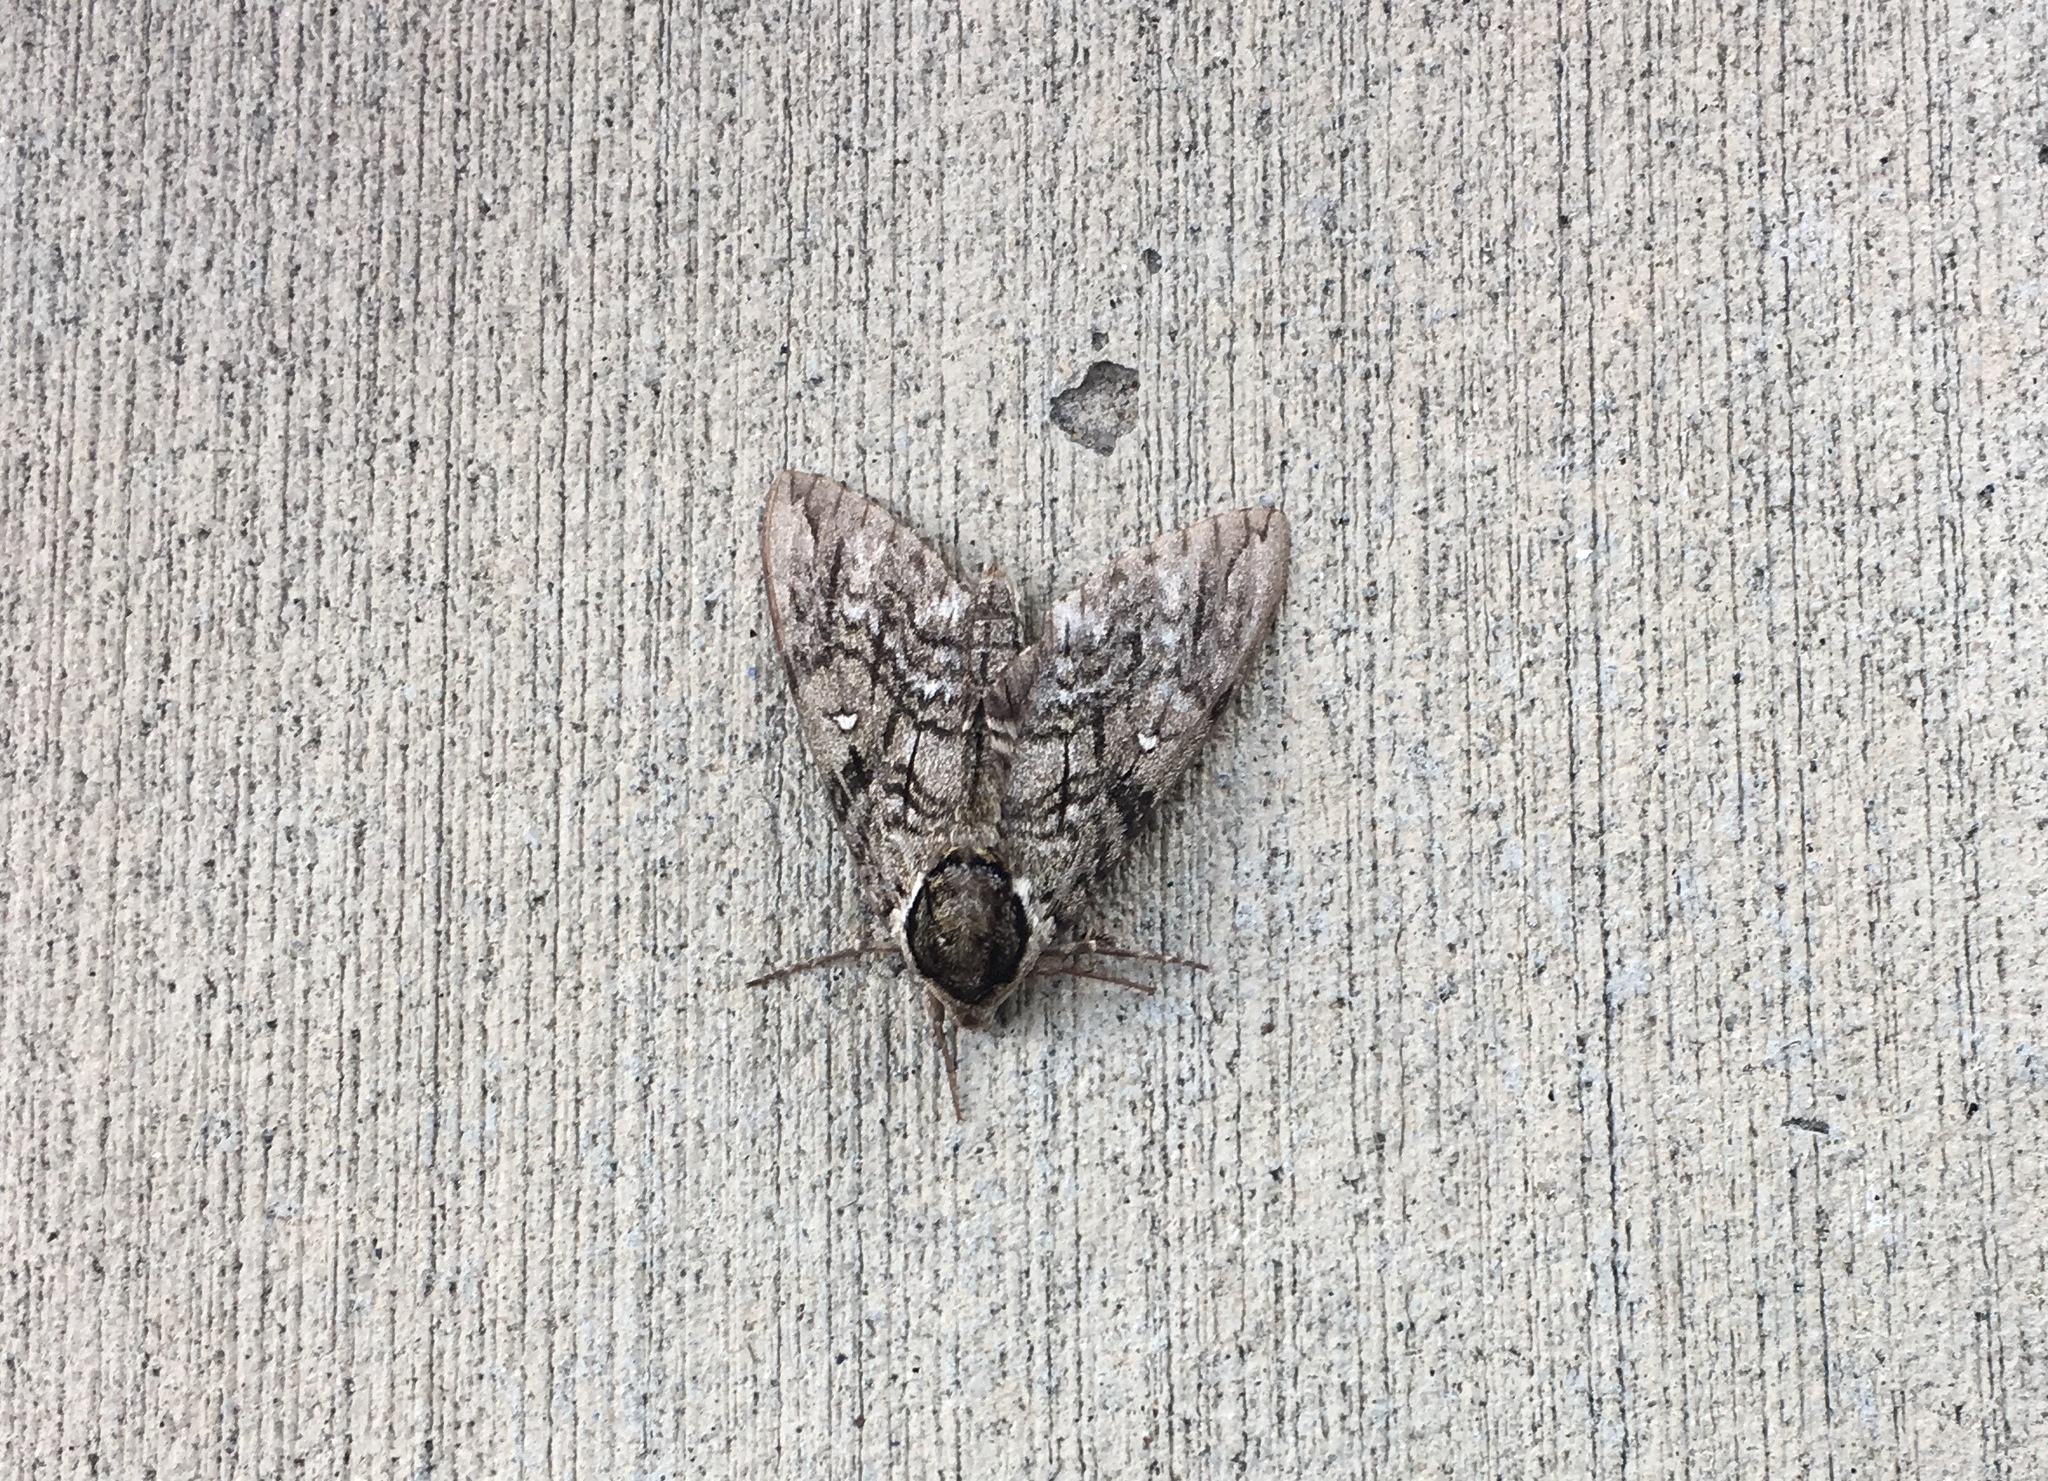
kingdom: Animalia
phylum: Arthropoda
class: Insecta
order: Lepidoptera
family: Sphingidae
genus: Ceratomia
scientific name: Ceratomia undulosa
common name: Waved sphinx
